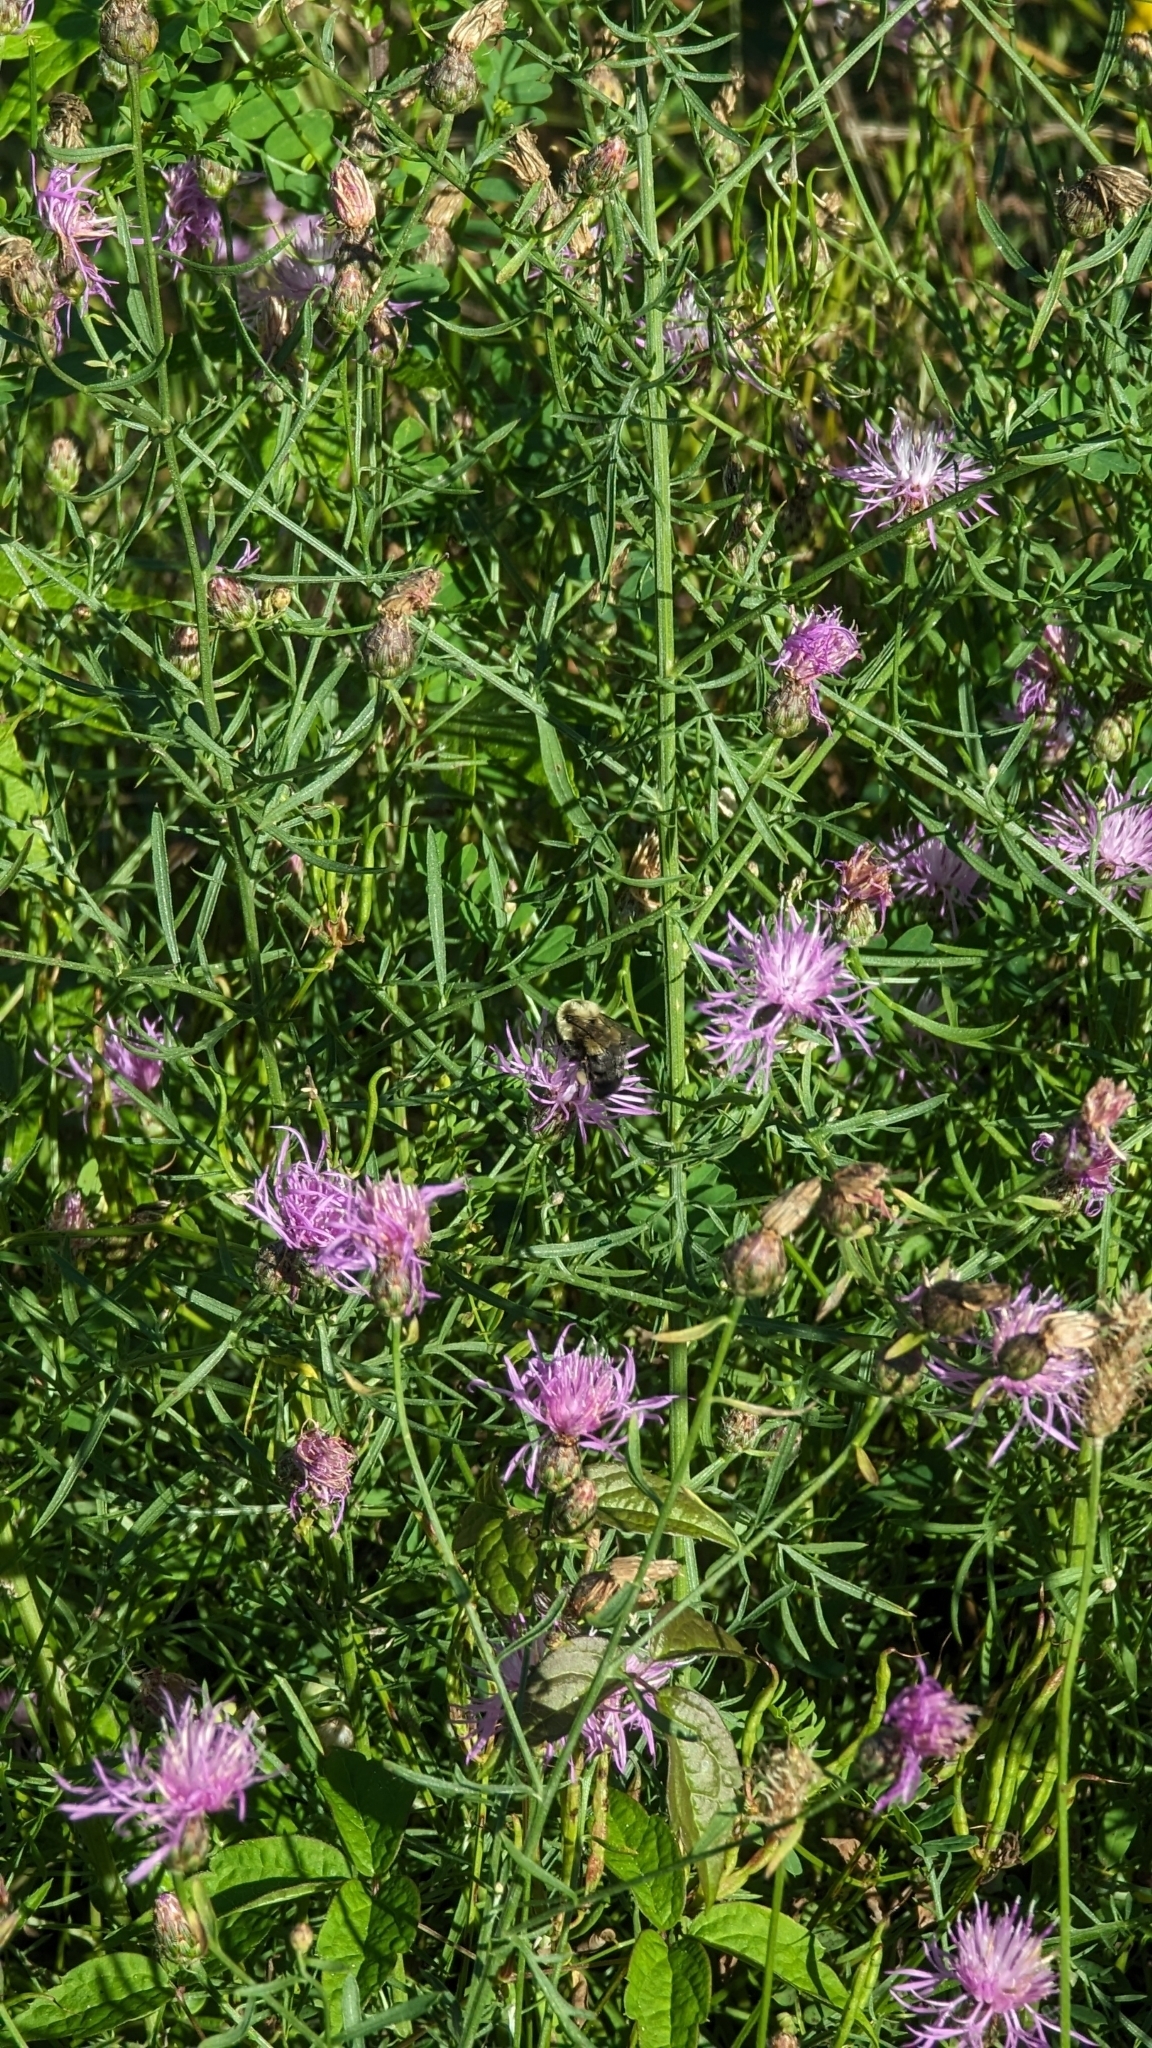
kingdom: Animalia
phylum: Arthropoda
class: Insecta
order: Hymenoptera
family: Apidae
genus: Bombus
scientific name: Bombus impatiens
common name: Common eastern bumble bee
